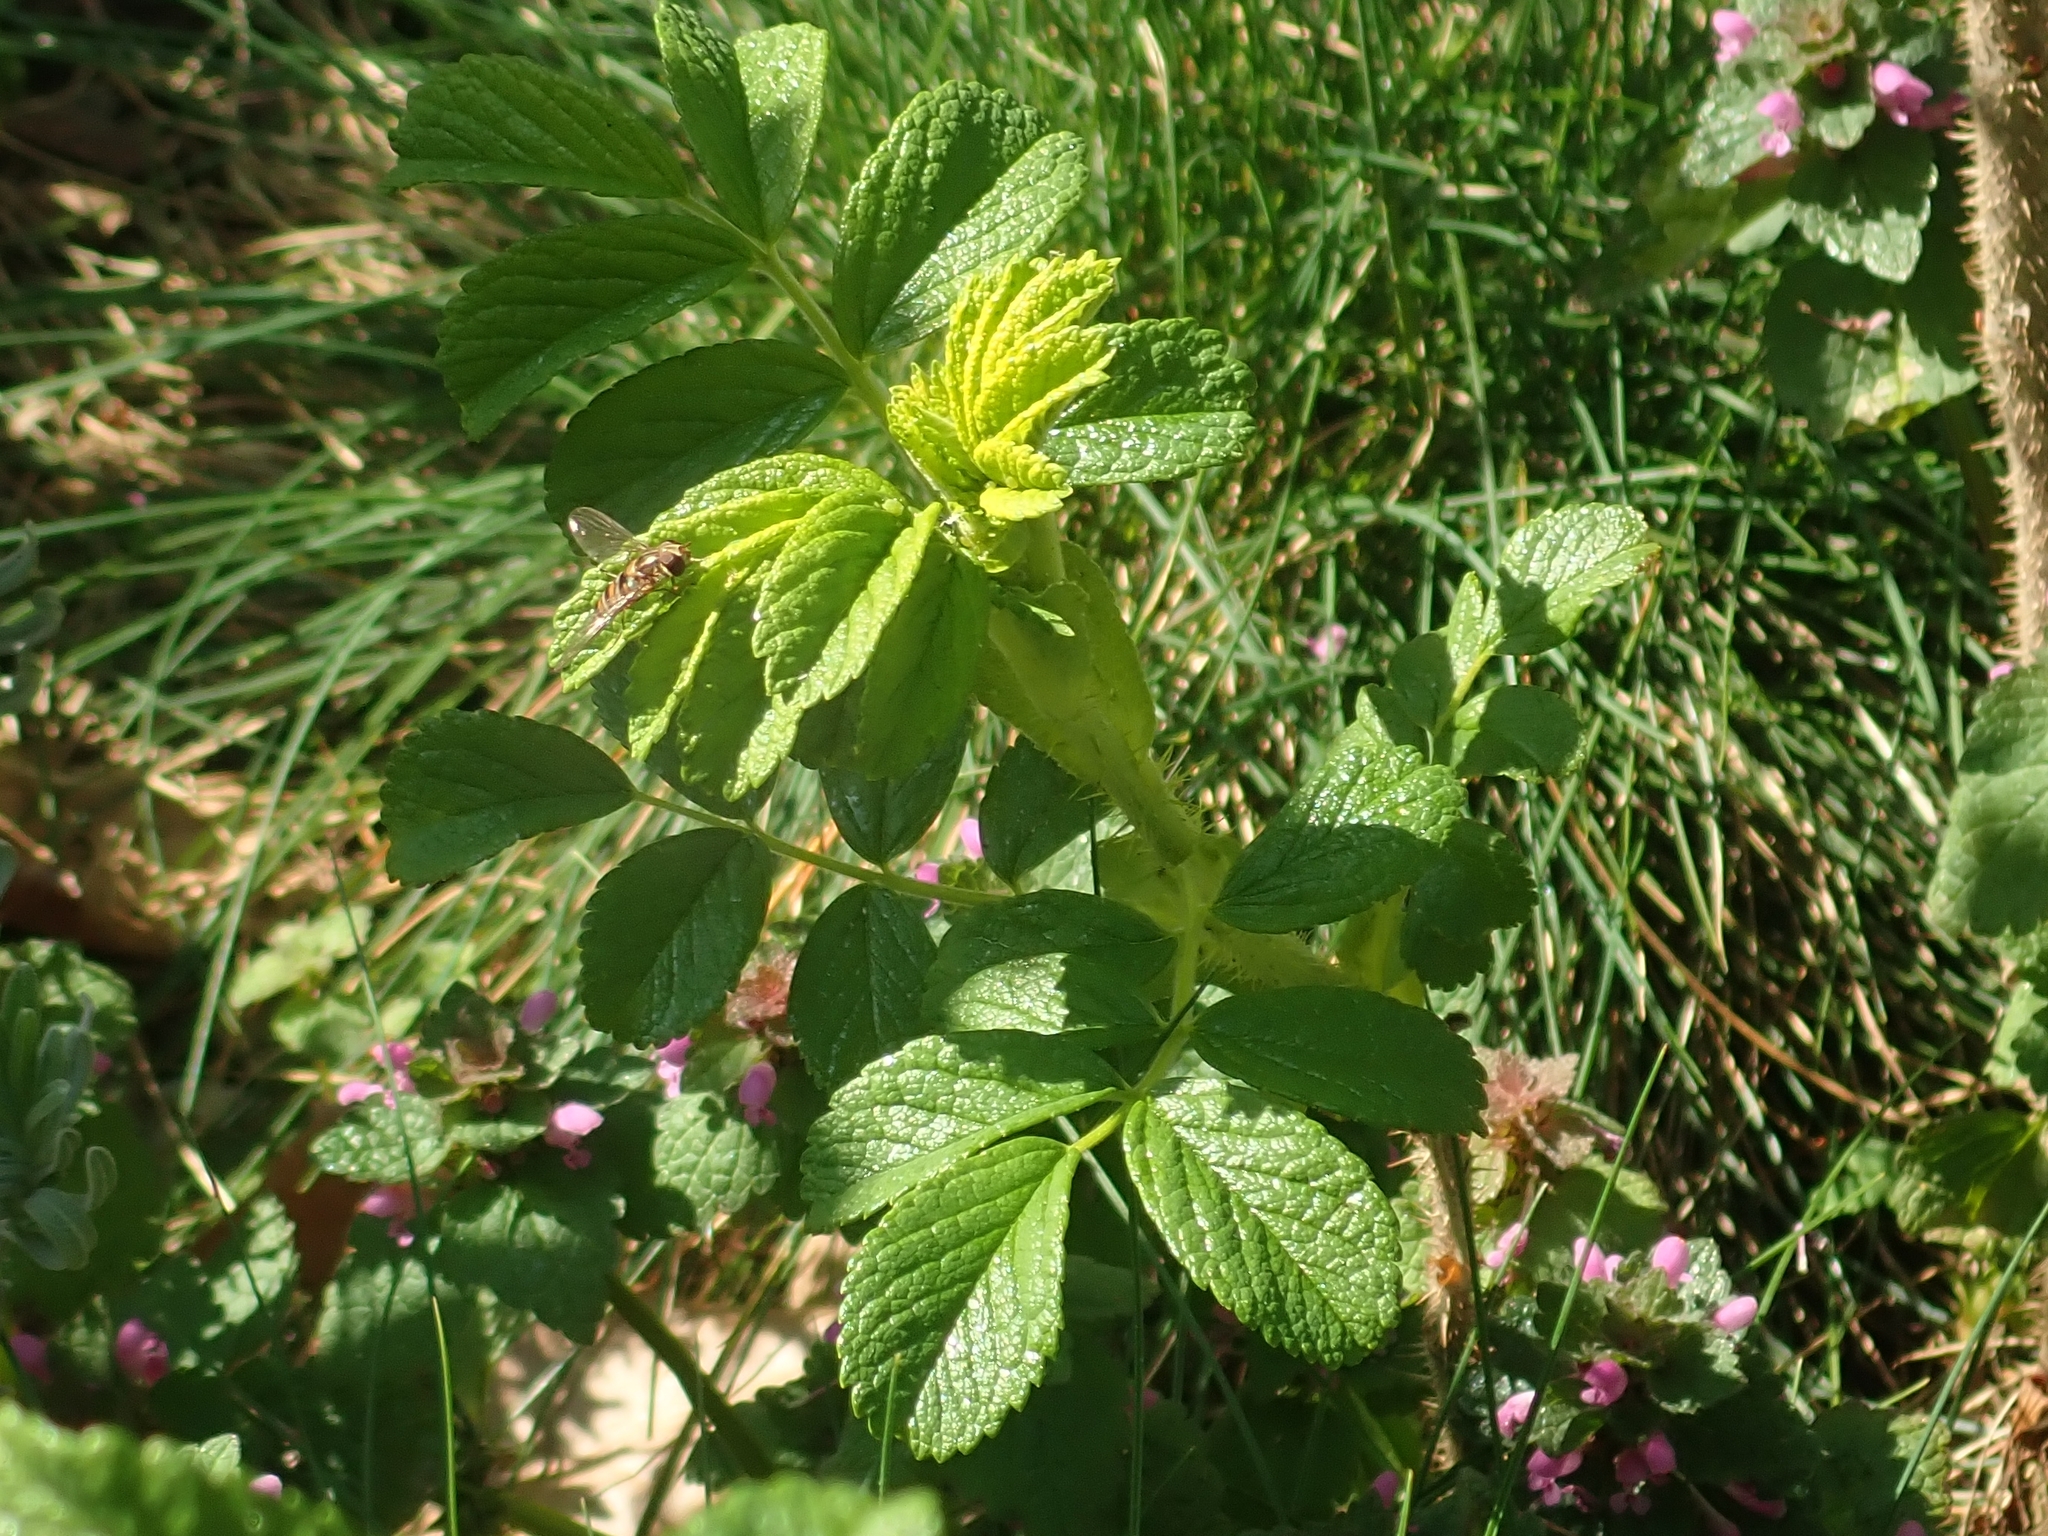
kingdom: Plantae
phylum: Tracheophyta
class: Magnoliopsida
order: Rosales
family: Rosaceae
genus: Rosa
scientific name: Rosa rugosa
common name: Japanese rose
